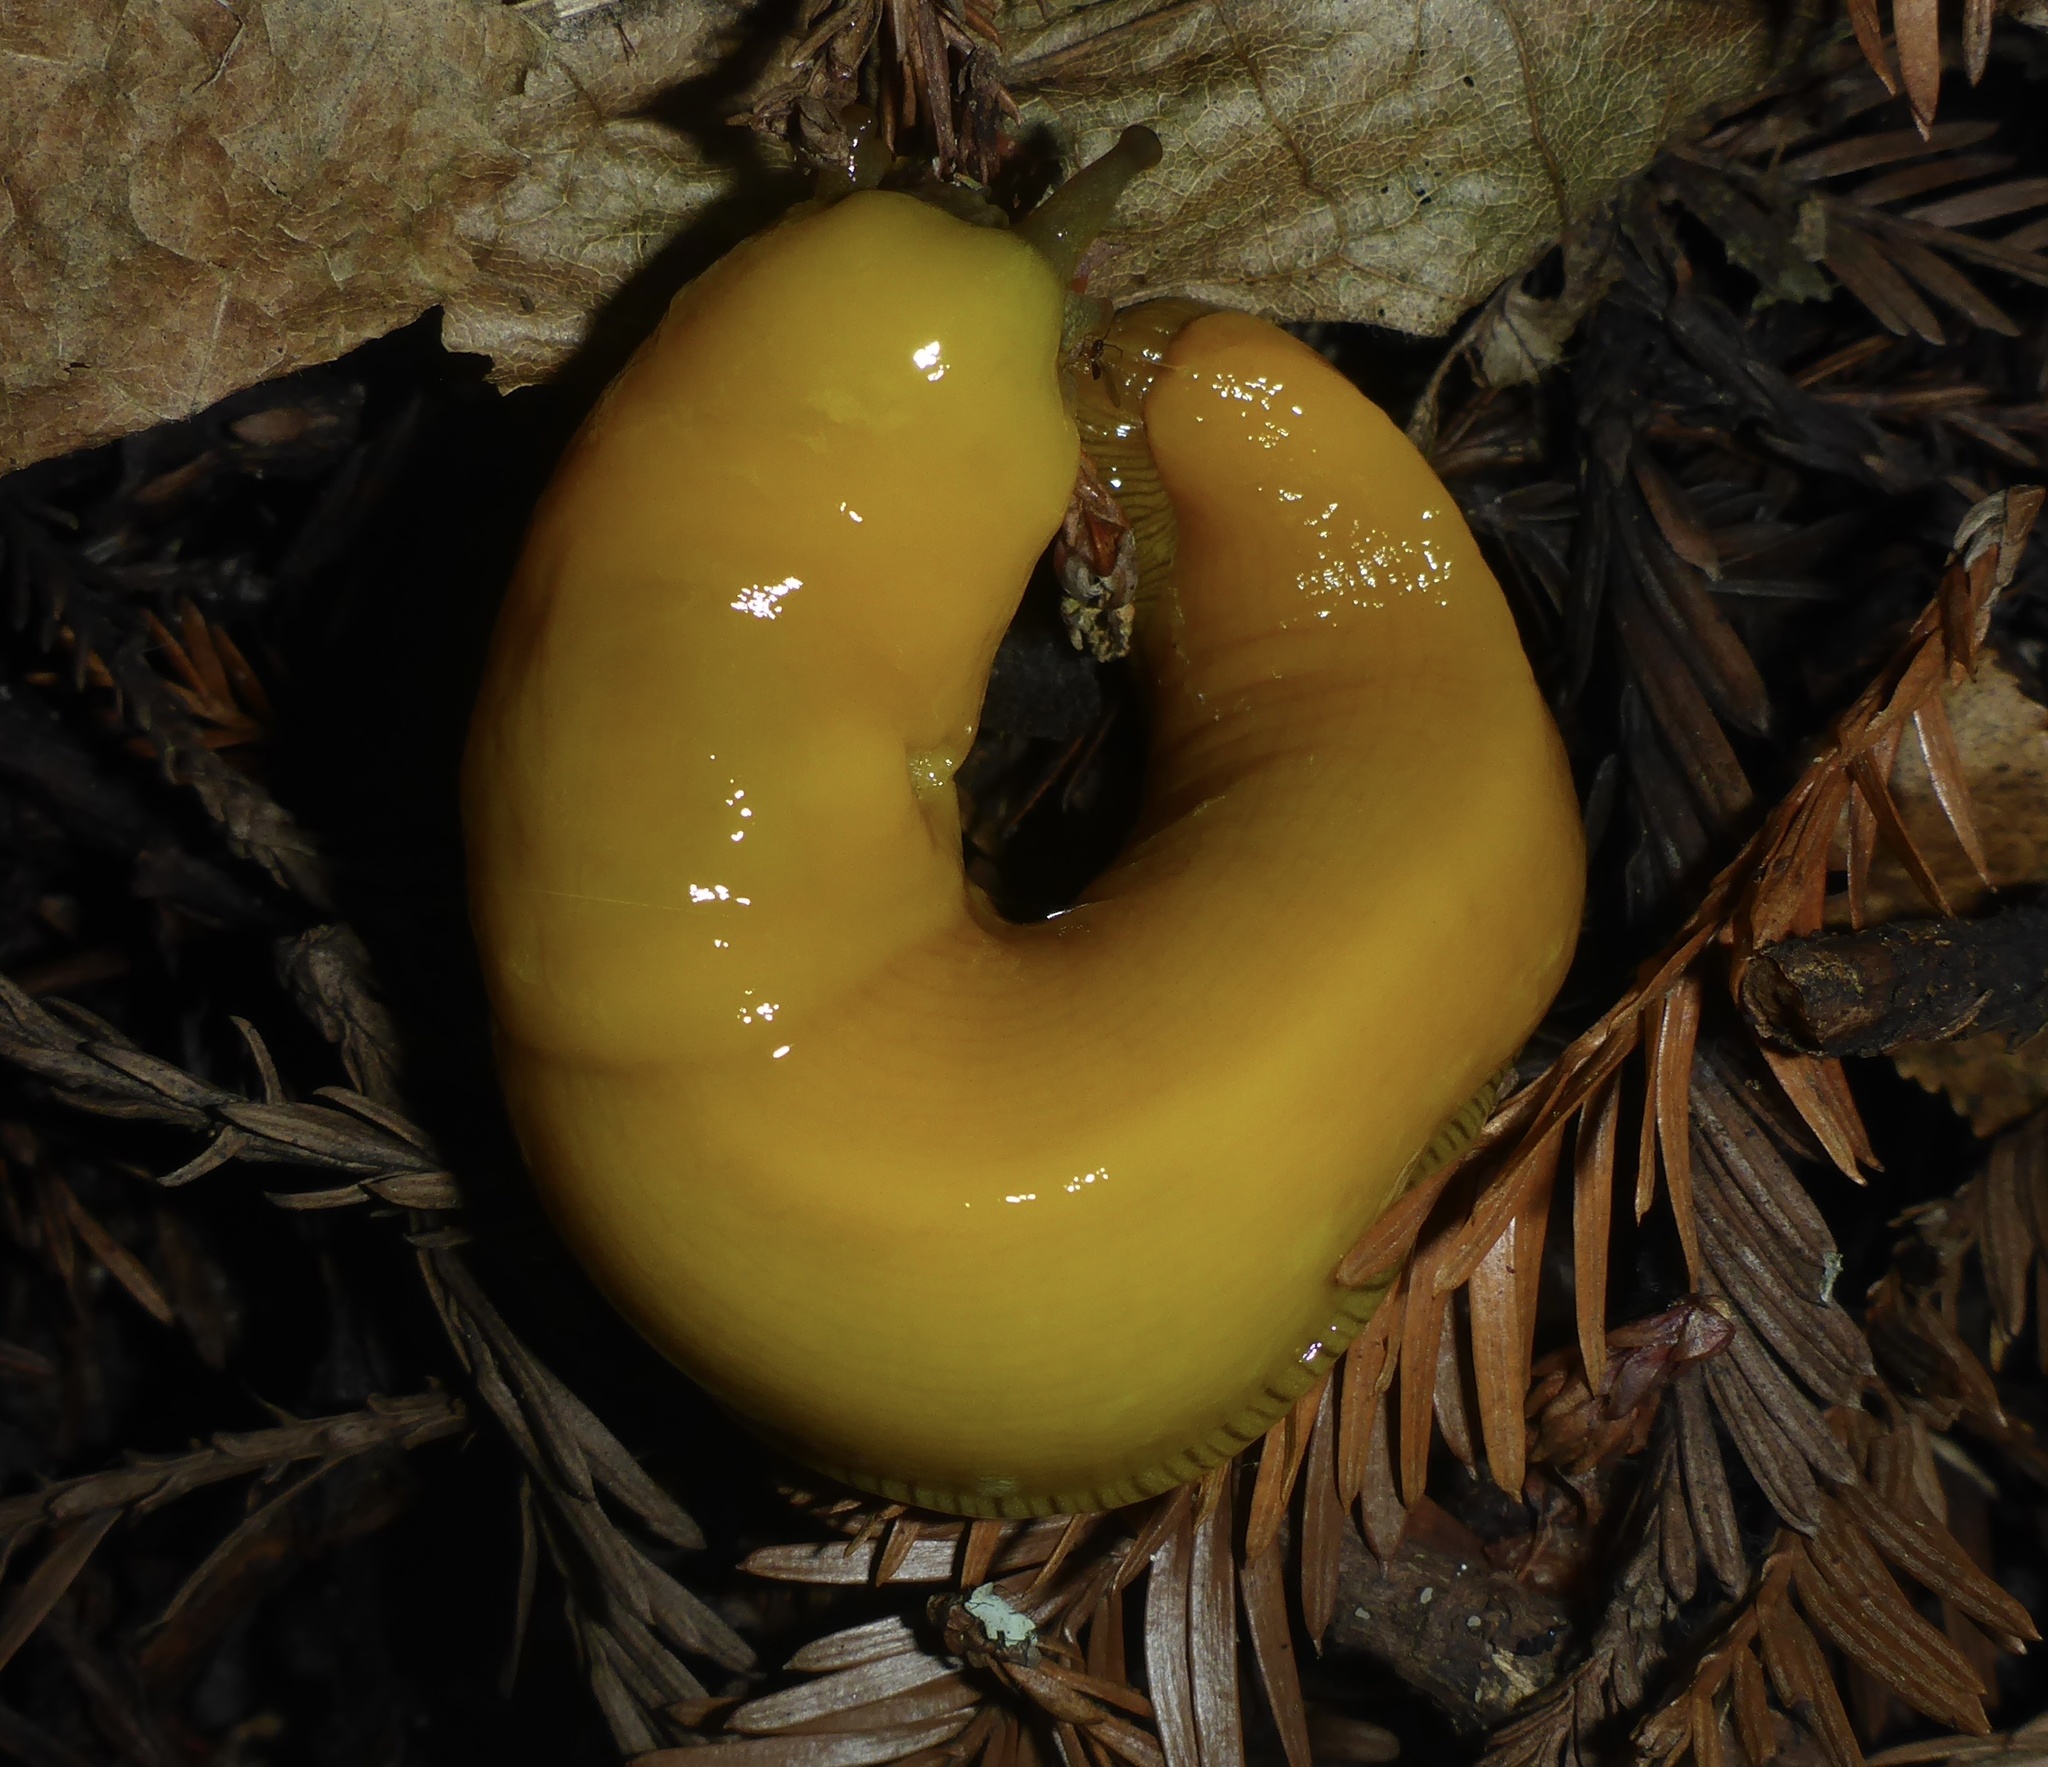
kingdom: Animalia
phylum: Mollusca
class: Gastropoda
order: Stylommatophora
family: Ariolimacidae
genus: Ariolimax
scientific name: Ariolimax californicus
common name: California banana slug
